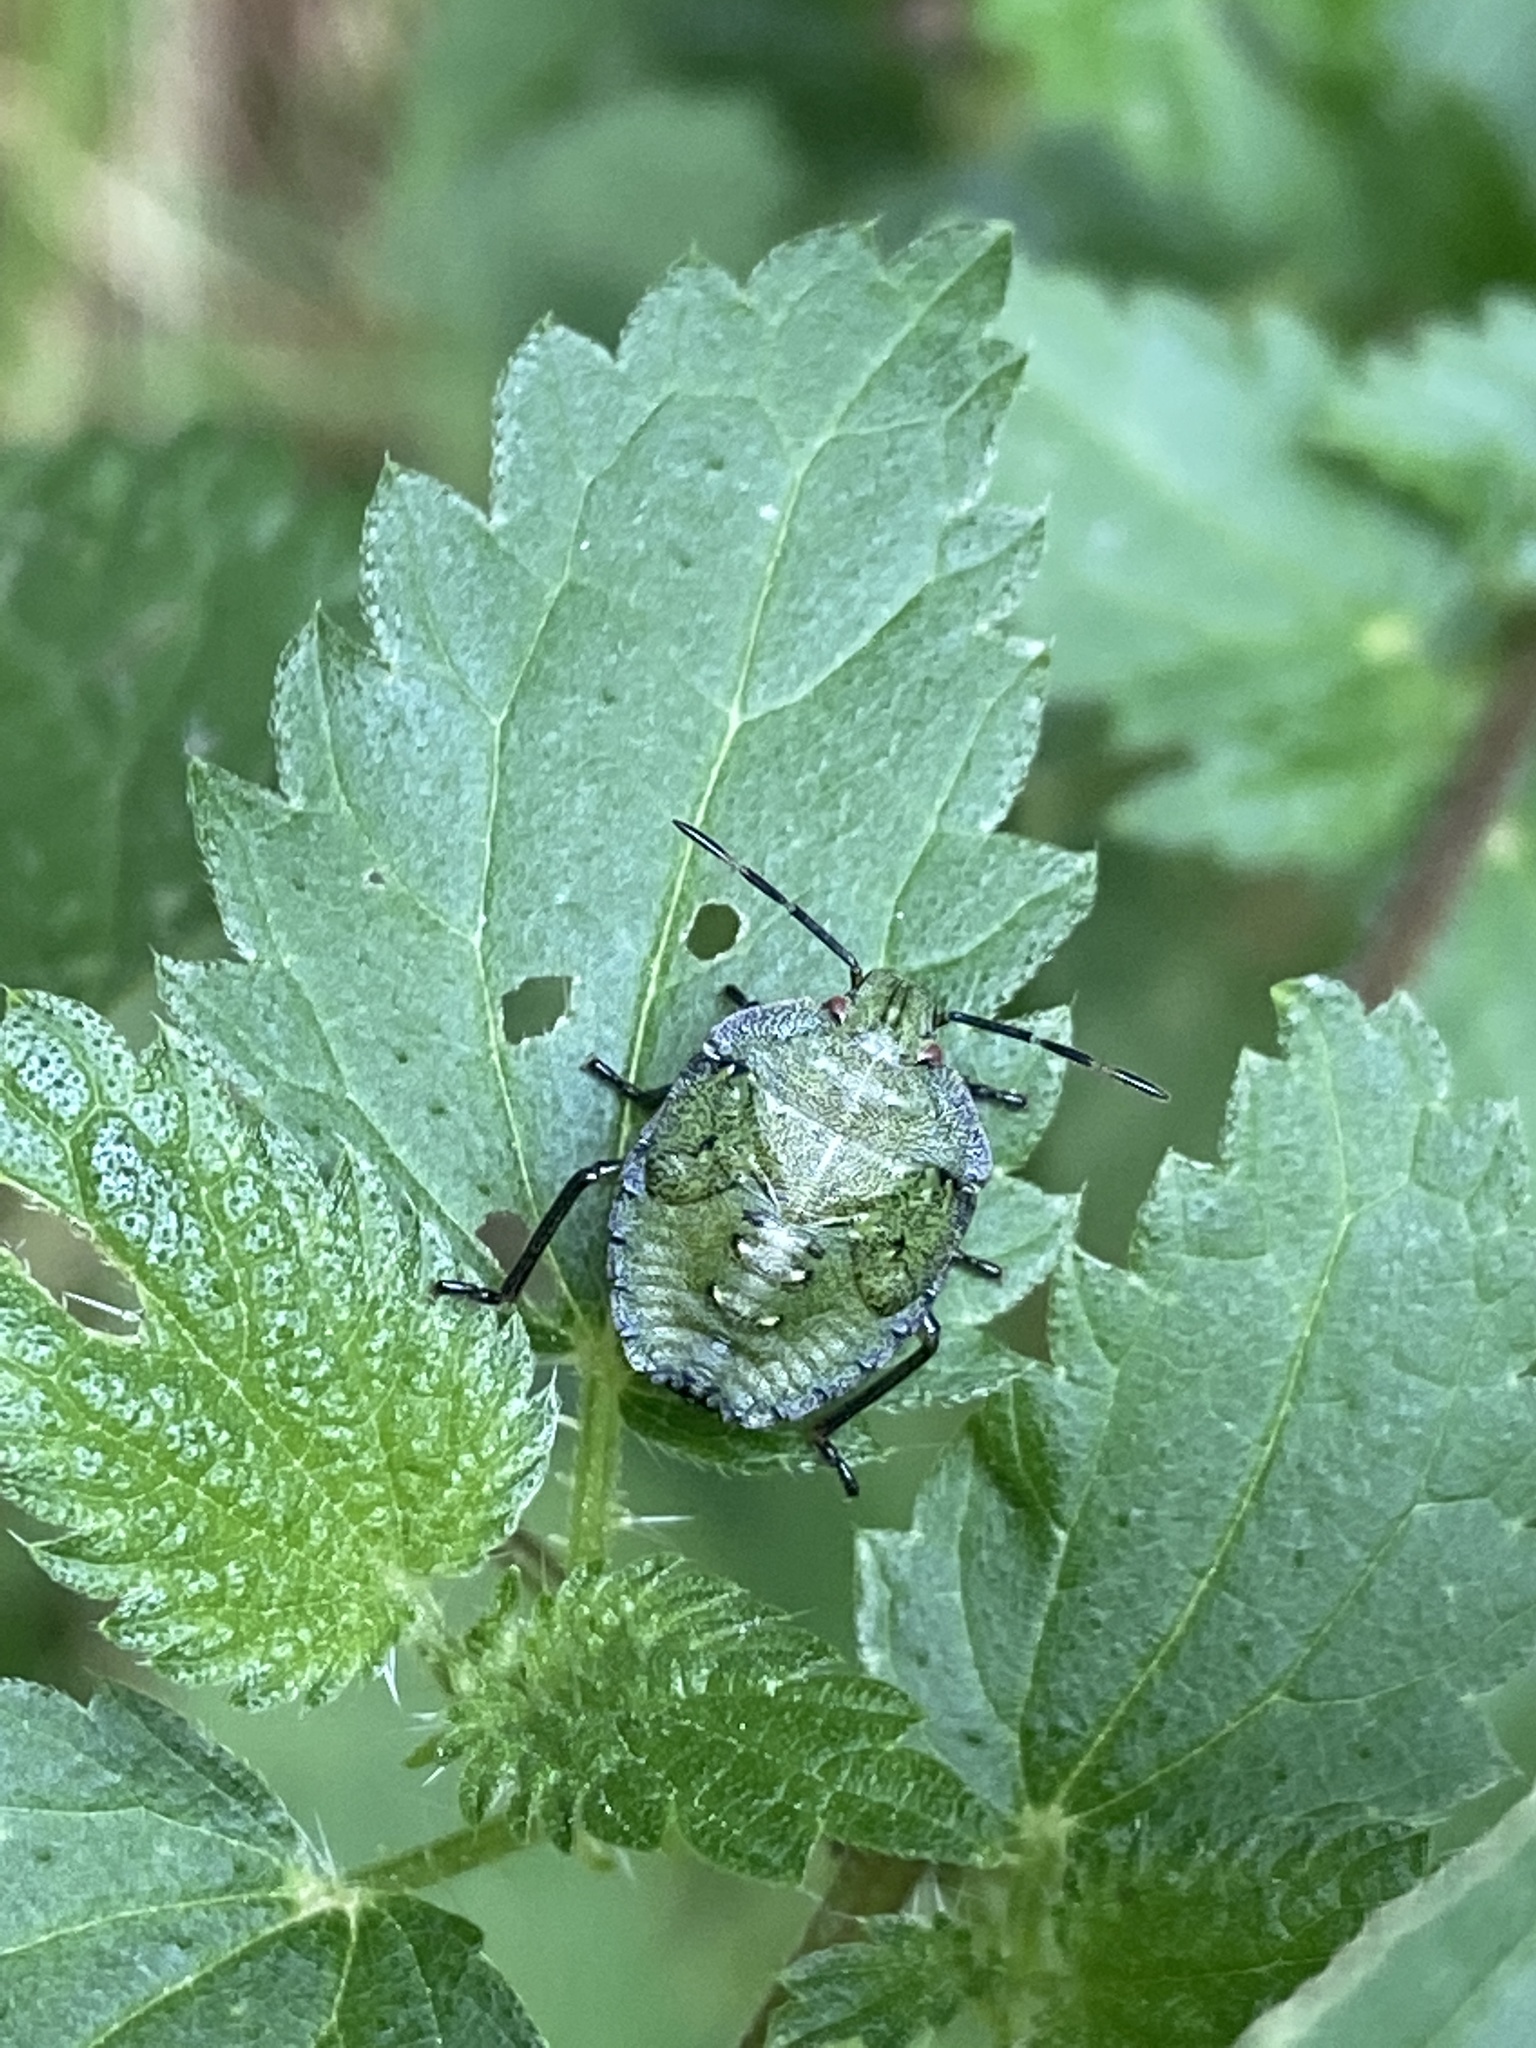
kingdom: Animalia
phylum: Arthropoda
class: Insecta
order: Hemiptera
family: Pentatomidae
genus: Palomena
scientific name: Palomena prasina
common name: Green shieldbug
